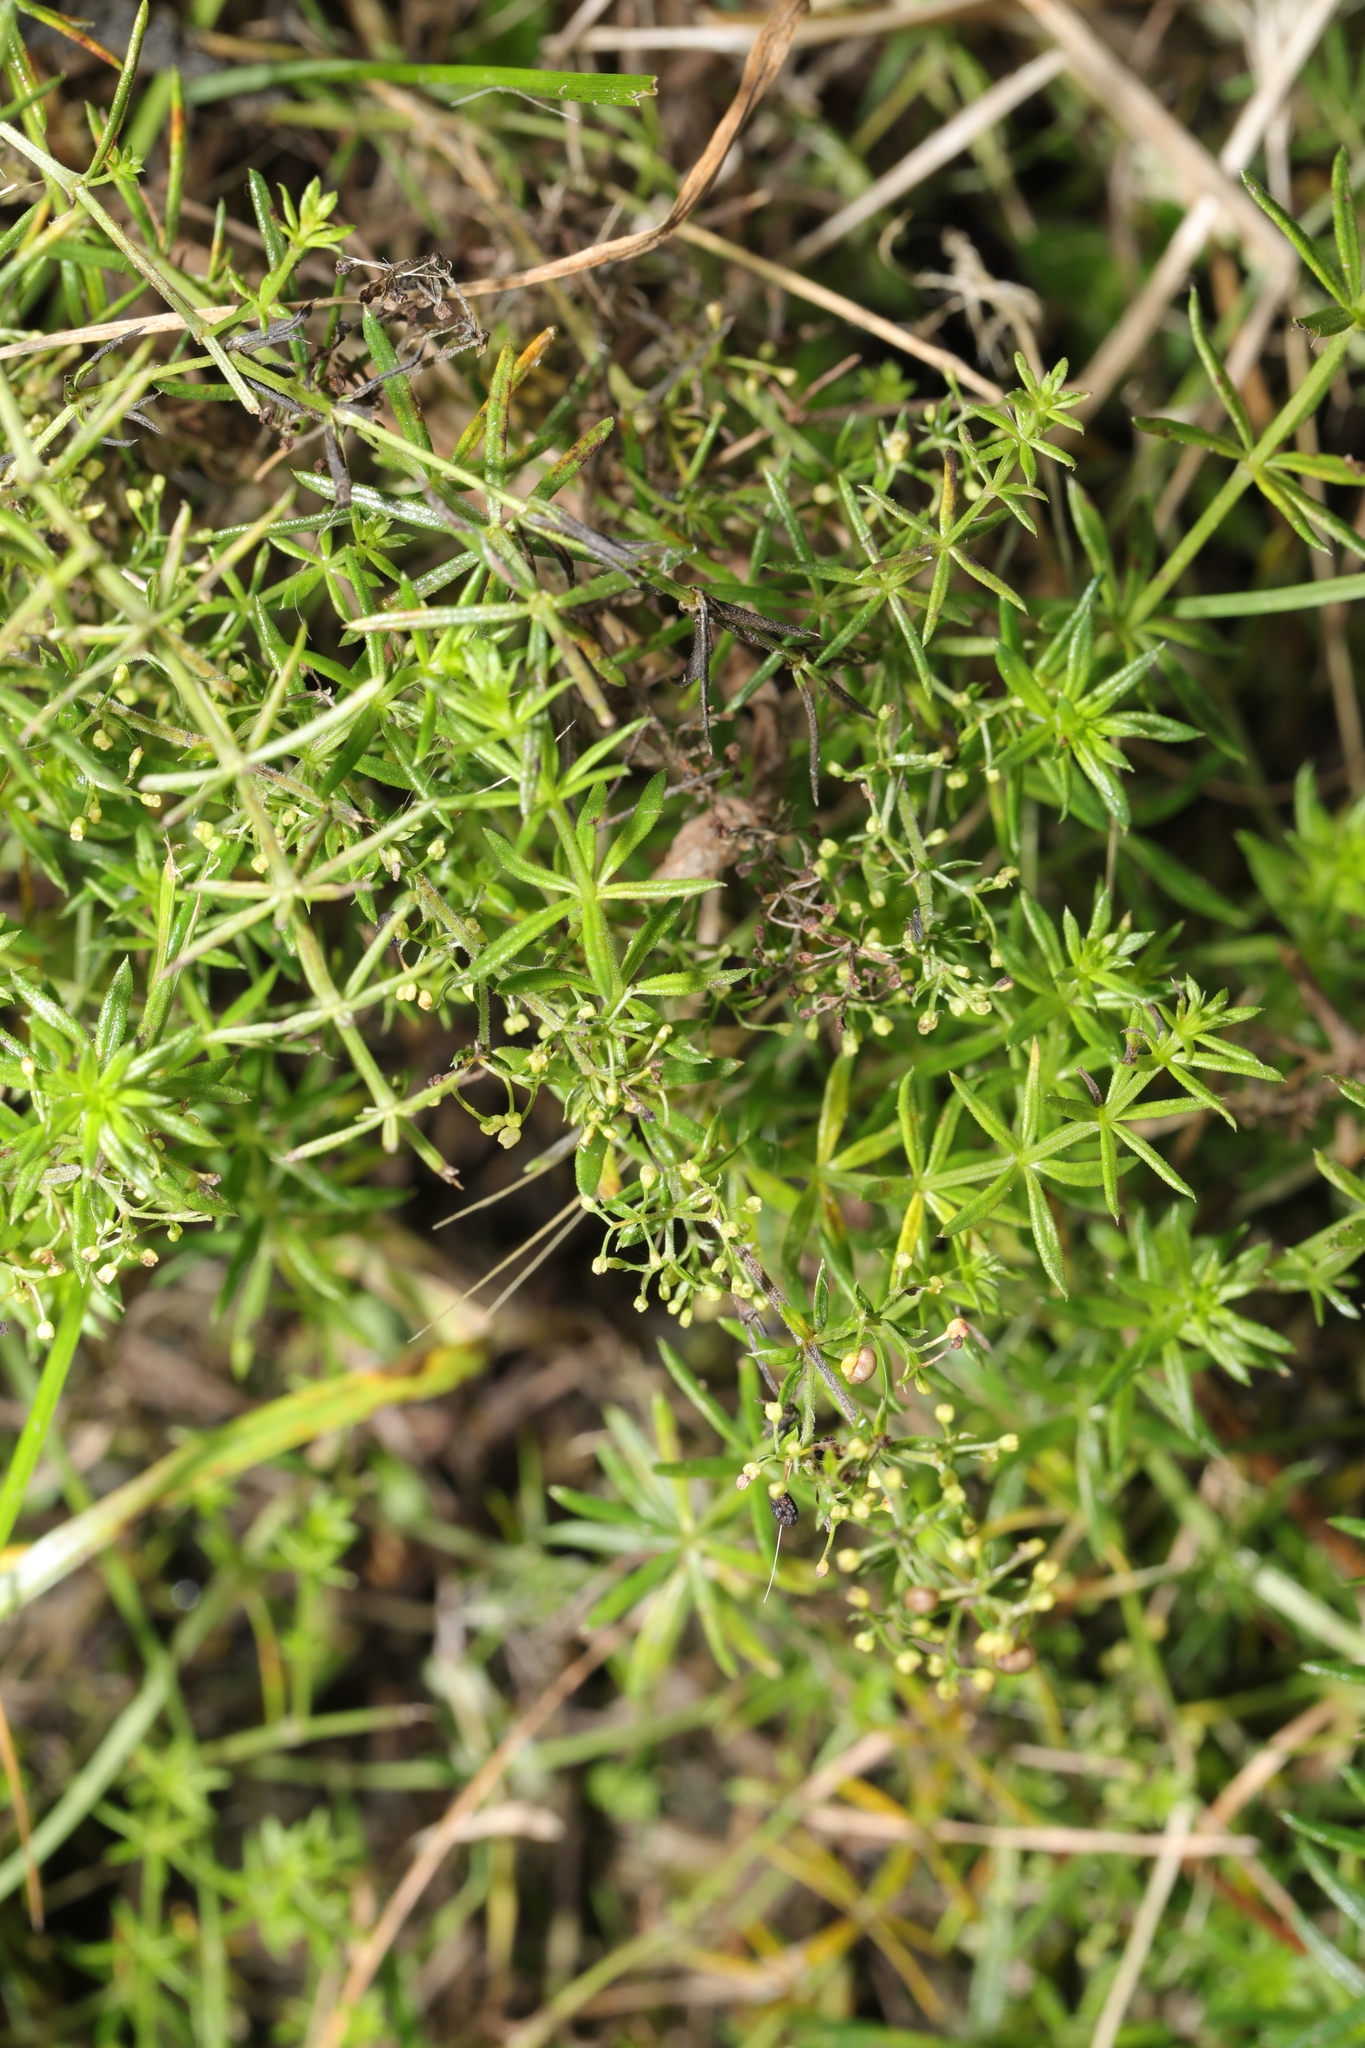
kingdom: Plantae
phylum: Tracheophyta
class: Magnoliopsida
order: Gentianales
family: Rubiaceae
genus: Galium
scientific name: Galium verum
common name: Lady's bedstraw
